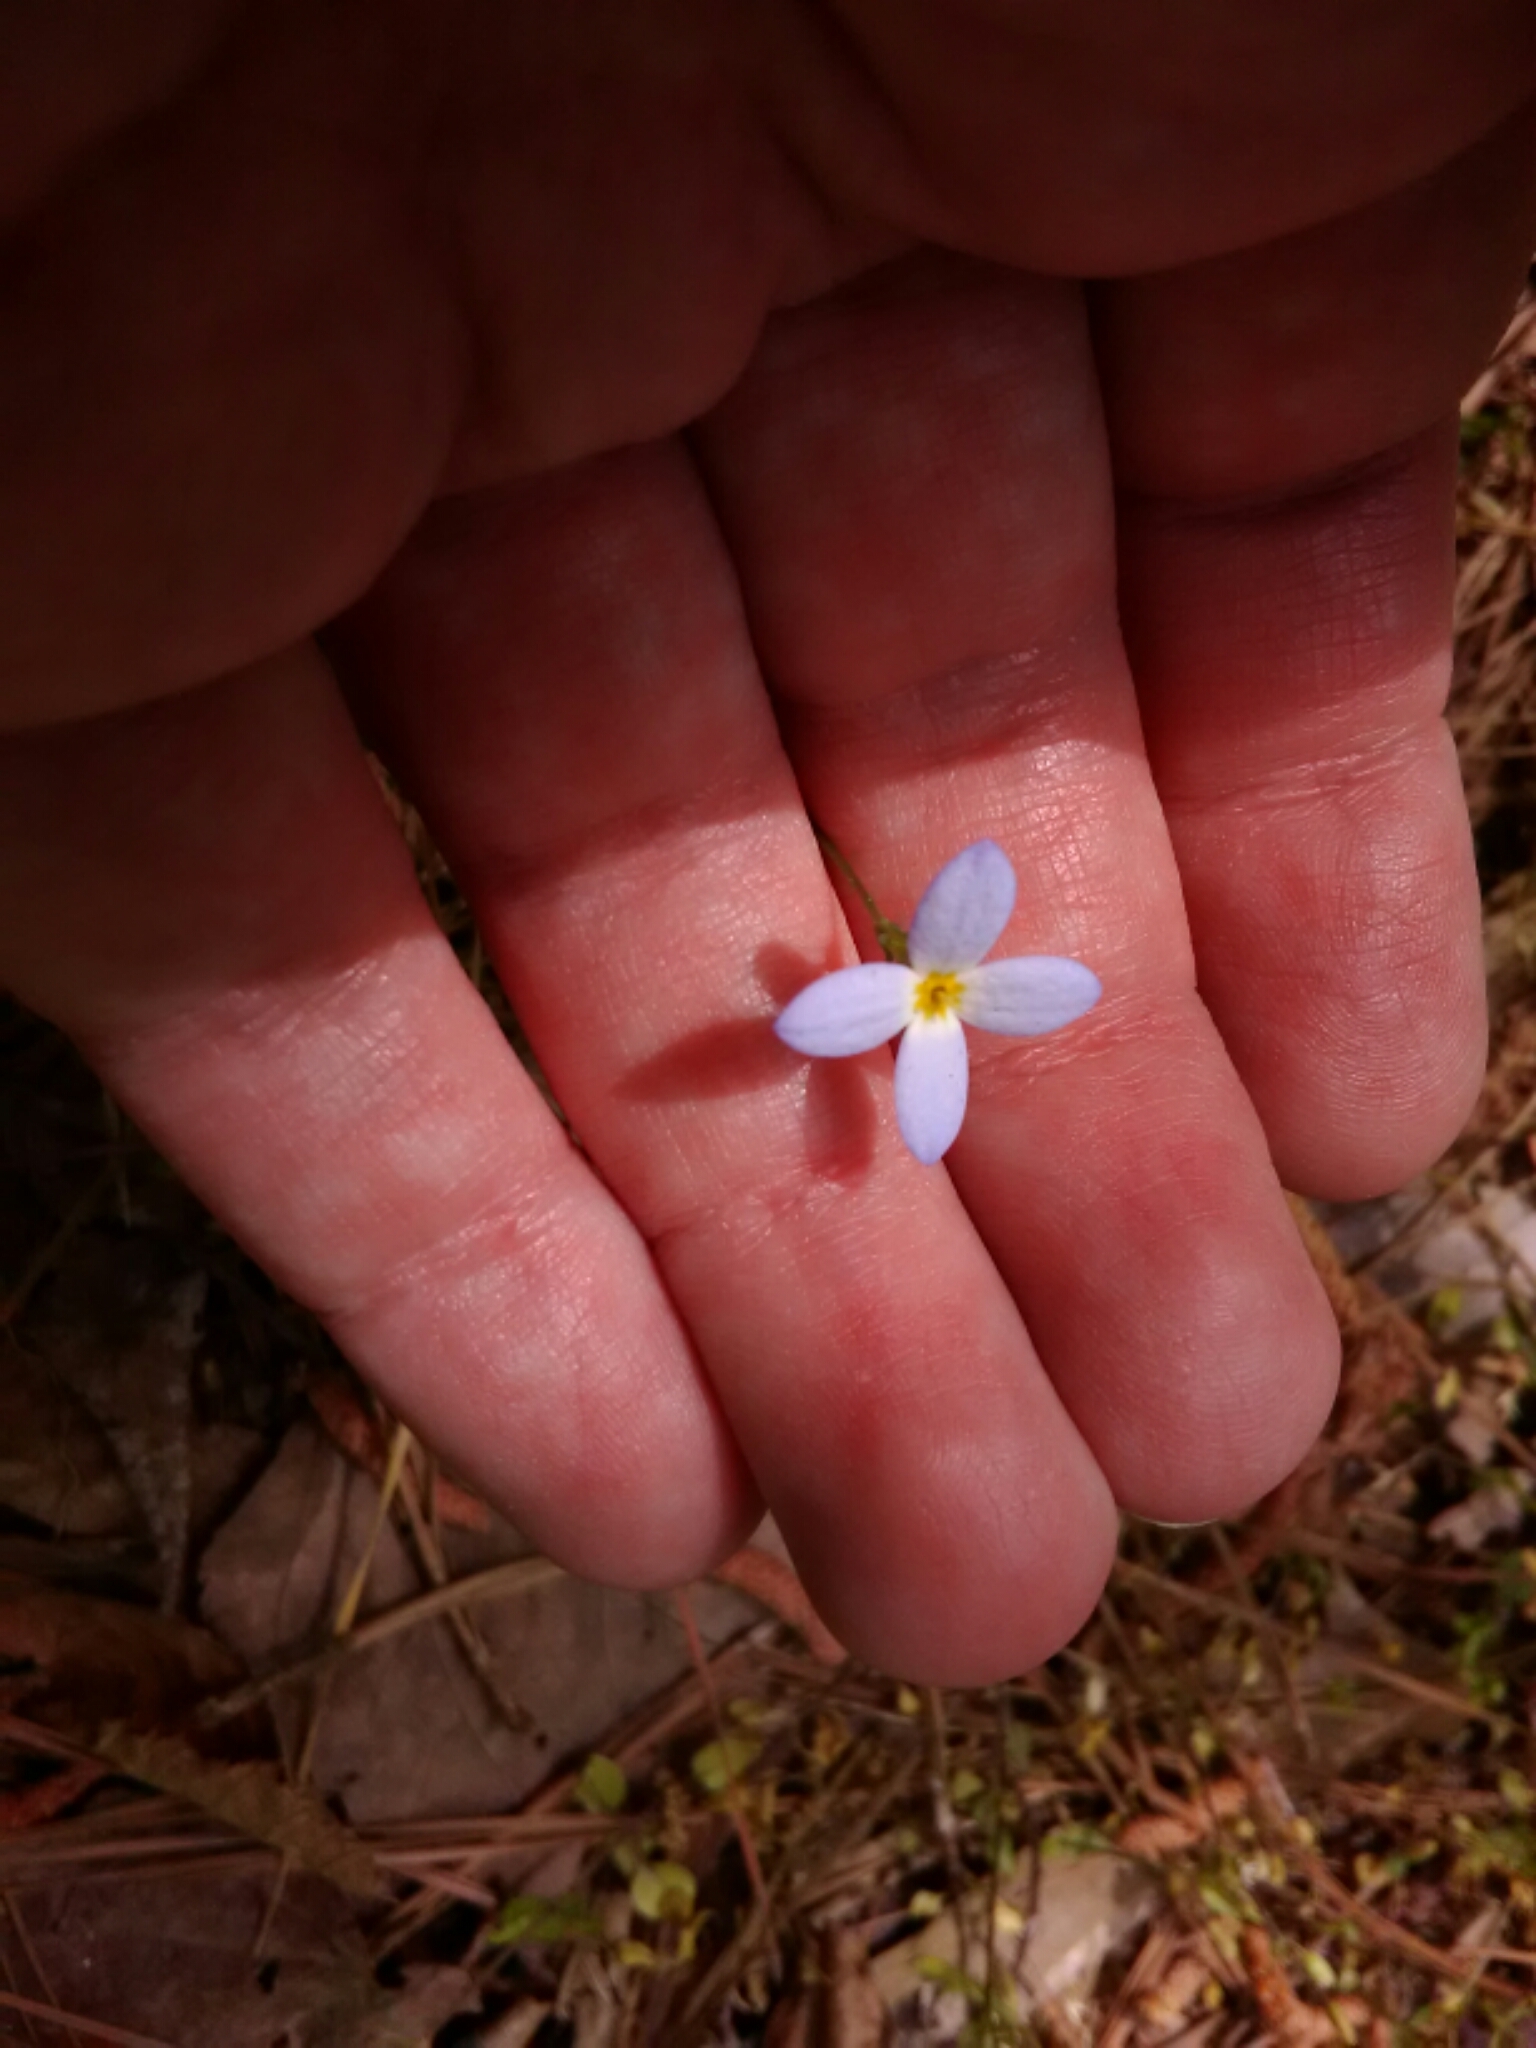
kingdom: Plantae
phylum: Tracheophyta
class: Magnoliopsida
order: Gentianales
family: Rubiaceae
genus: Houstonia
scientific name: Houstonia caerulea
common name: Bluets
